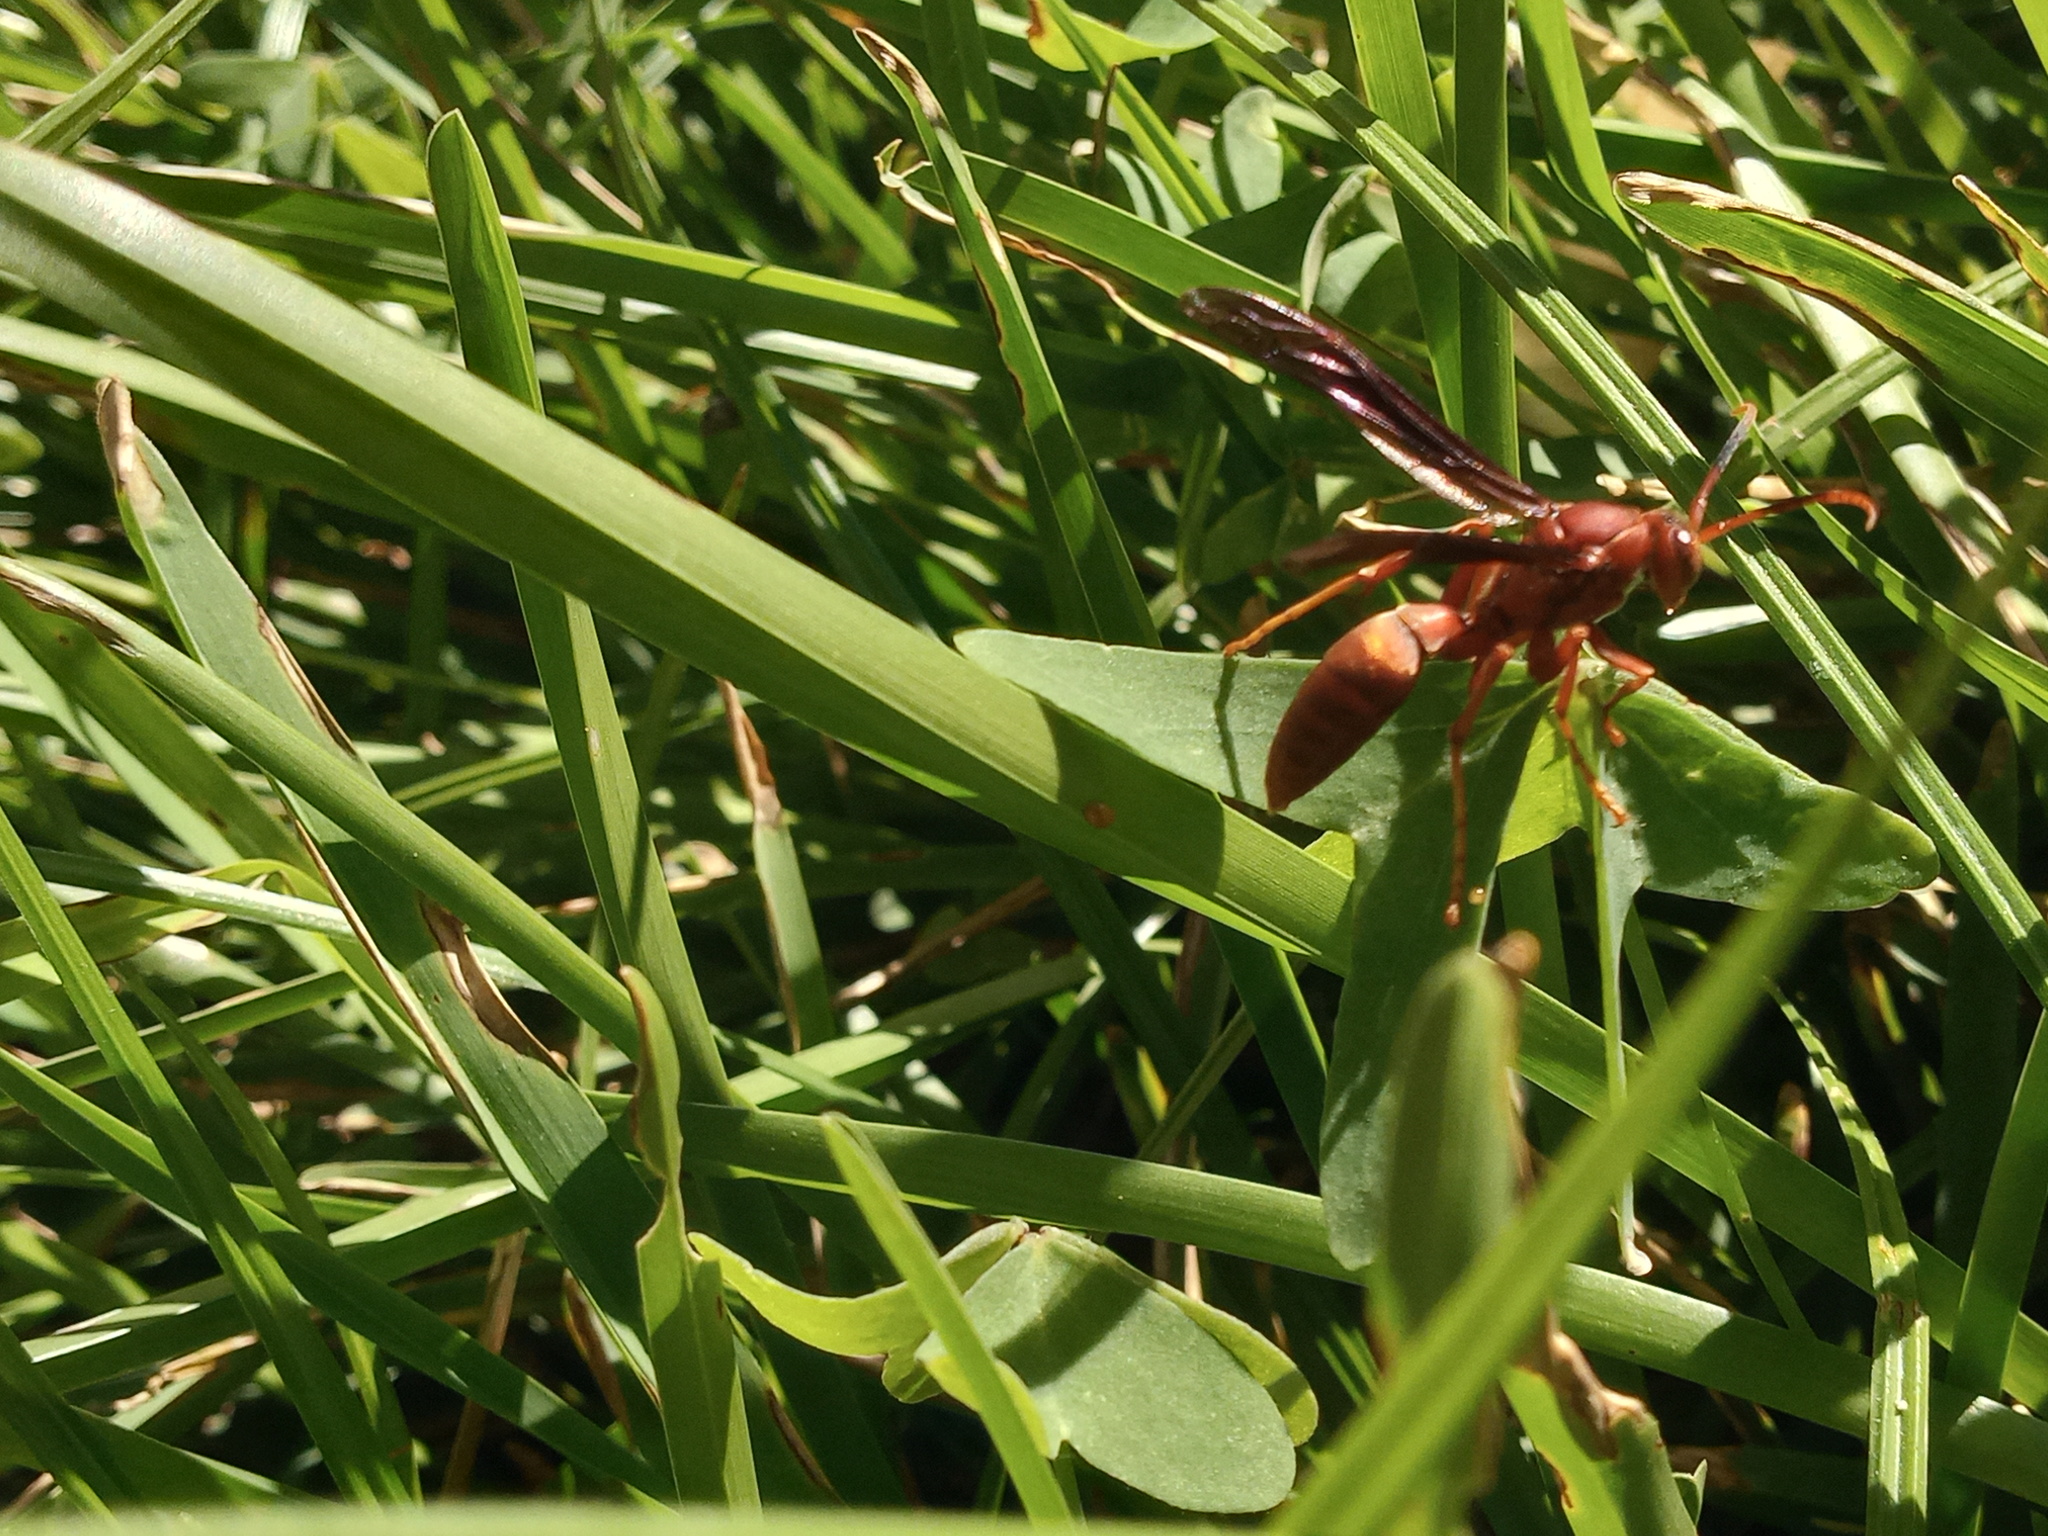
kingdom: Animalia
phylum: Arthropoda
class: Insecta
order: Hymenoptera
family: Eumenidae
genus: Polistes
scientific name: Polistes canadensis
